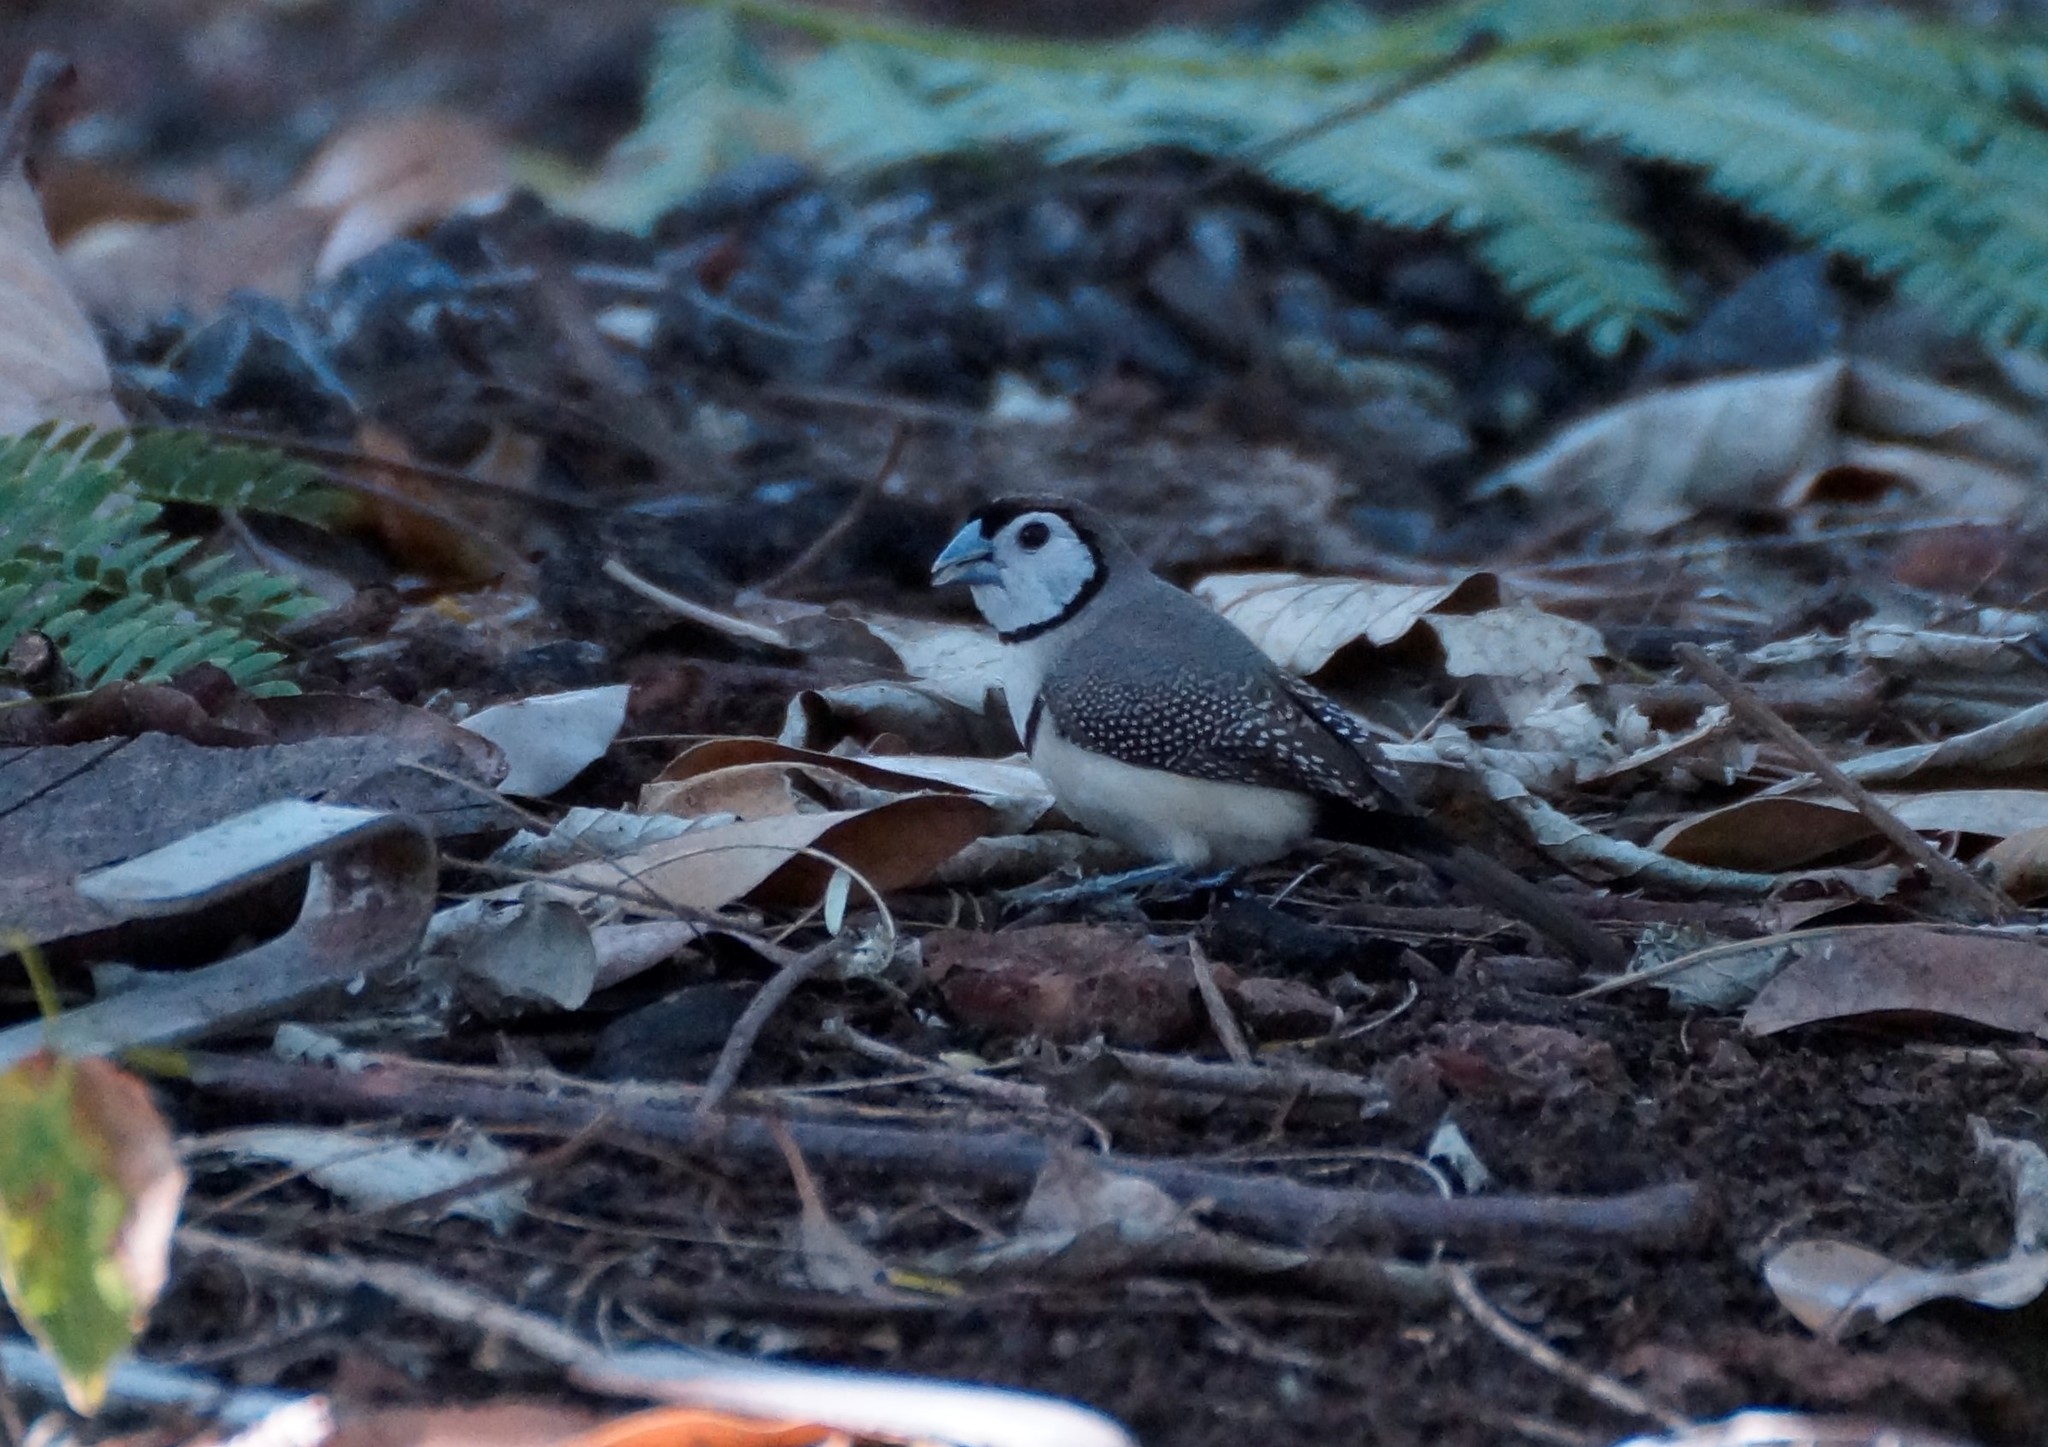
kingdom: Animalia
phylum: Chordata
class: Aves
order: Passeriformes
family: Estrildidae
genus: Taeniopygia
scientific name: Taeniopygia bichenovii
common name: Double-barred finch
